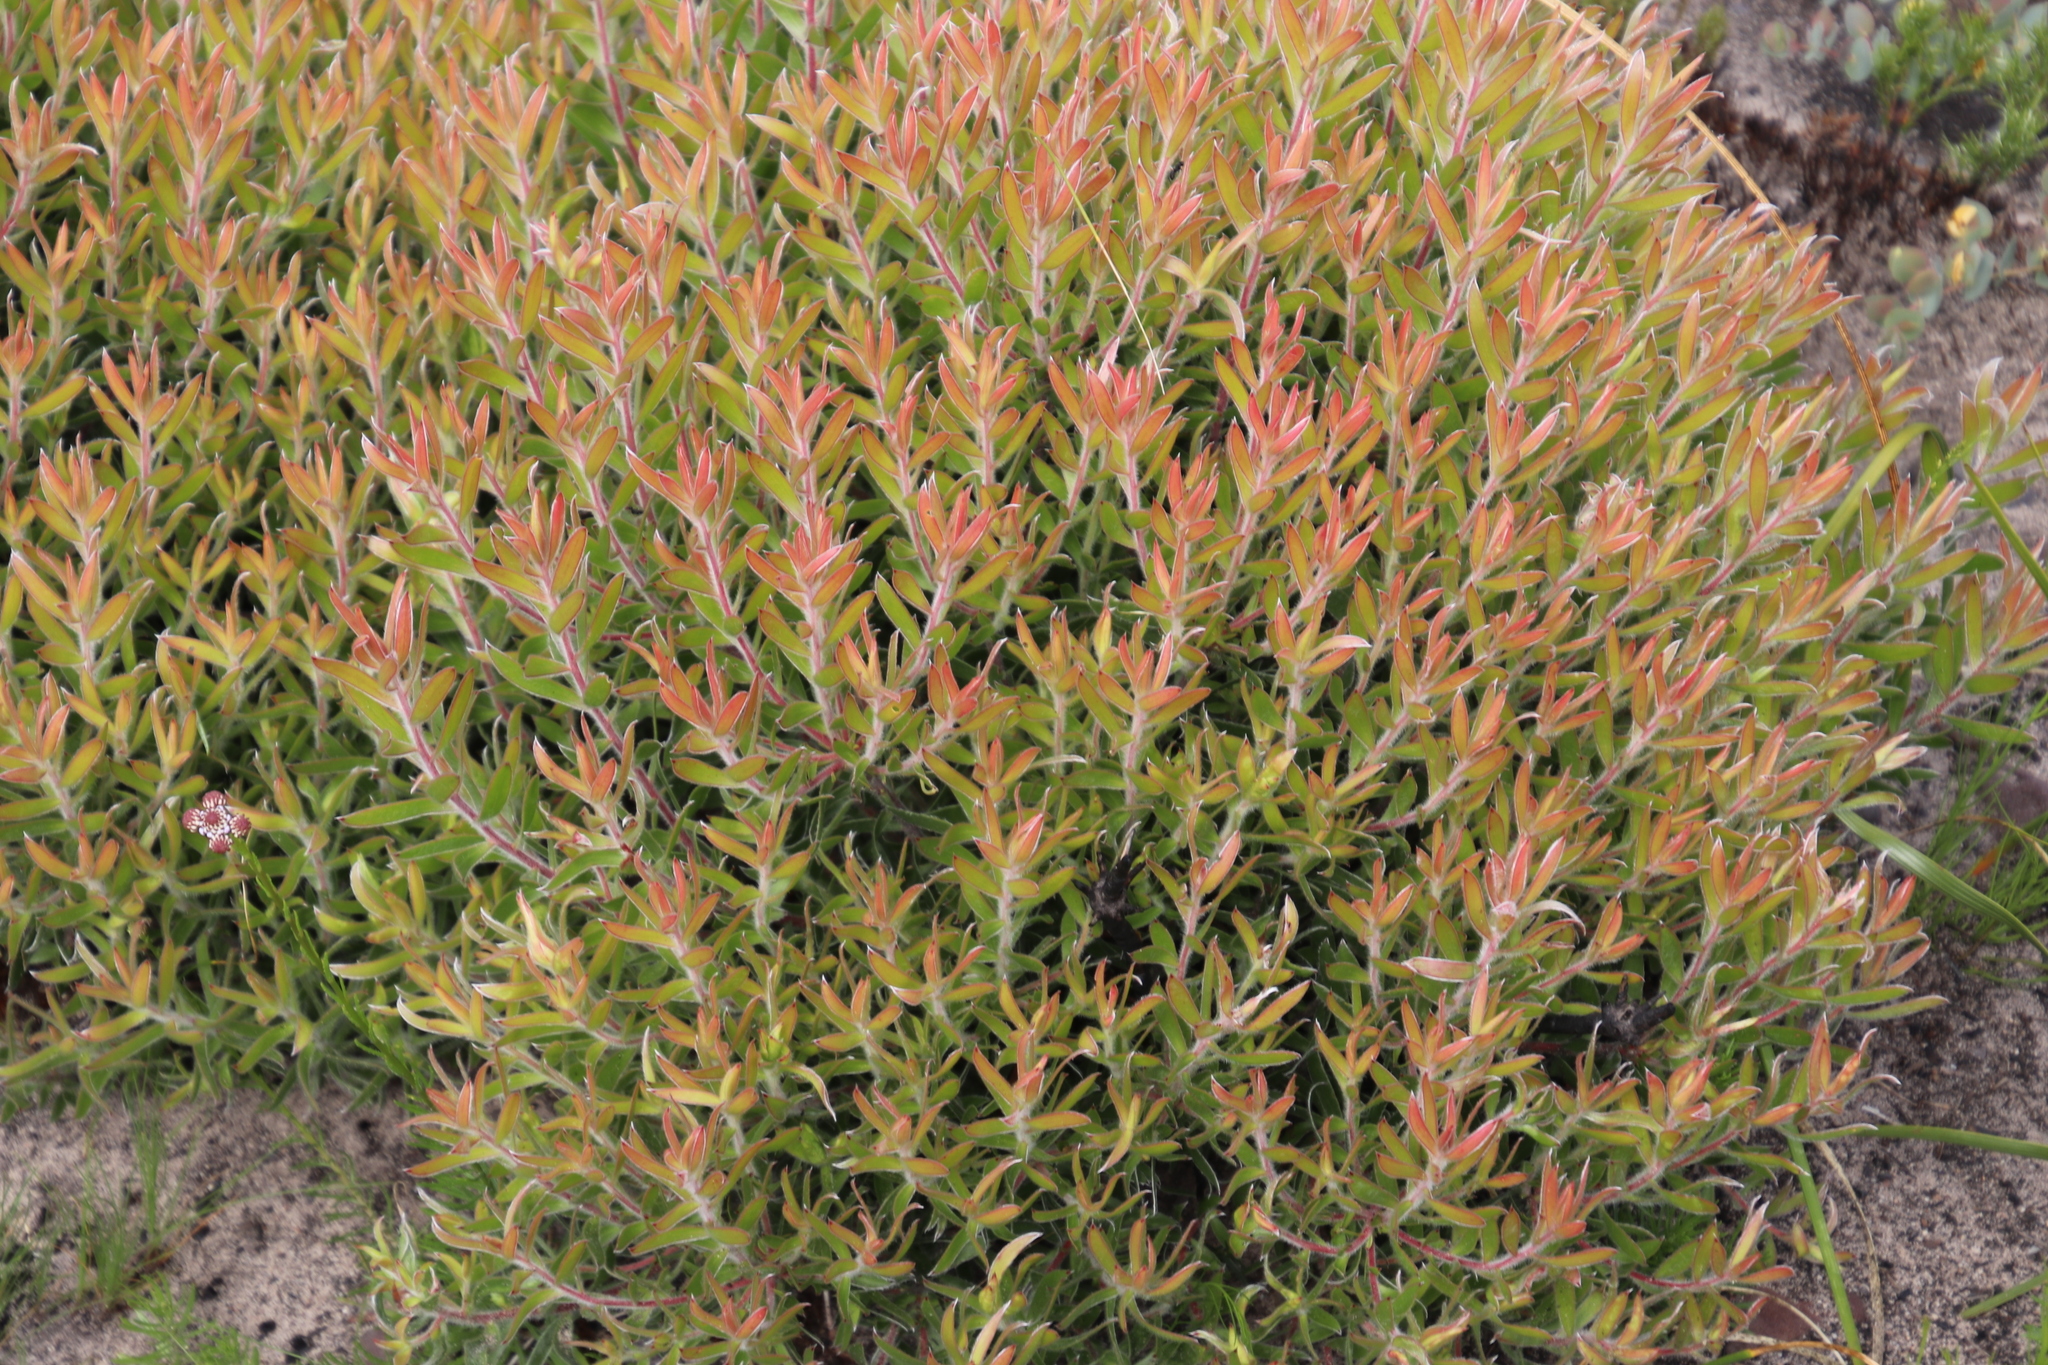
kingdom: Plantae
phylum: Tracheophyta
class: Magnoliopsida
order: Proteales
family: Proteaceae
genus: Leucadendron
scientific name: Leucadendron spissifolium
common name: Spear-leaf conebush
